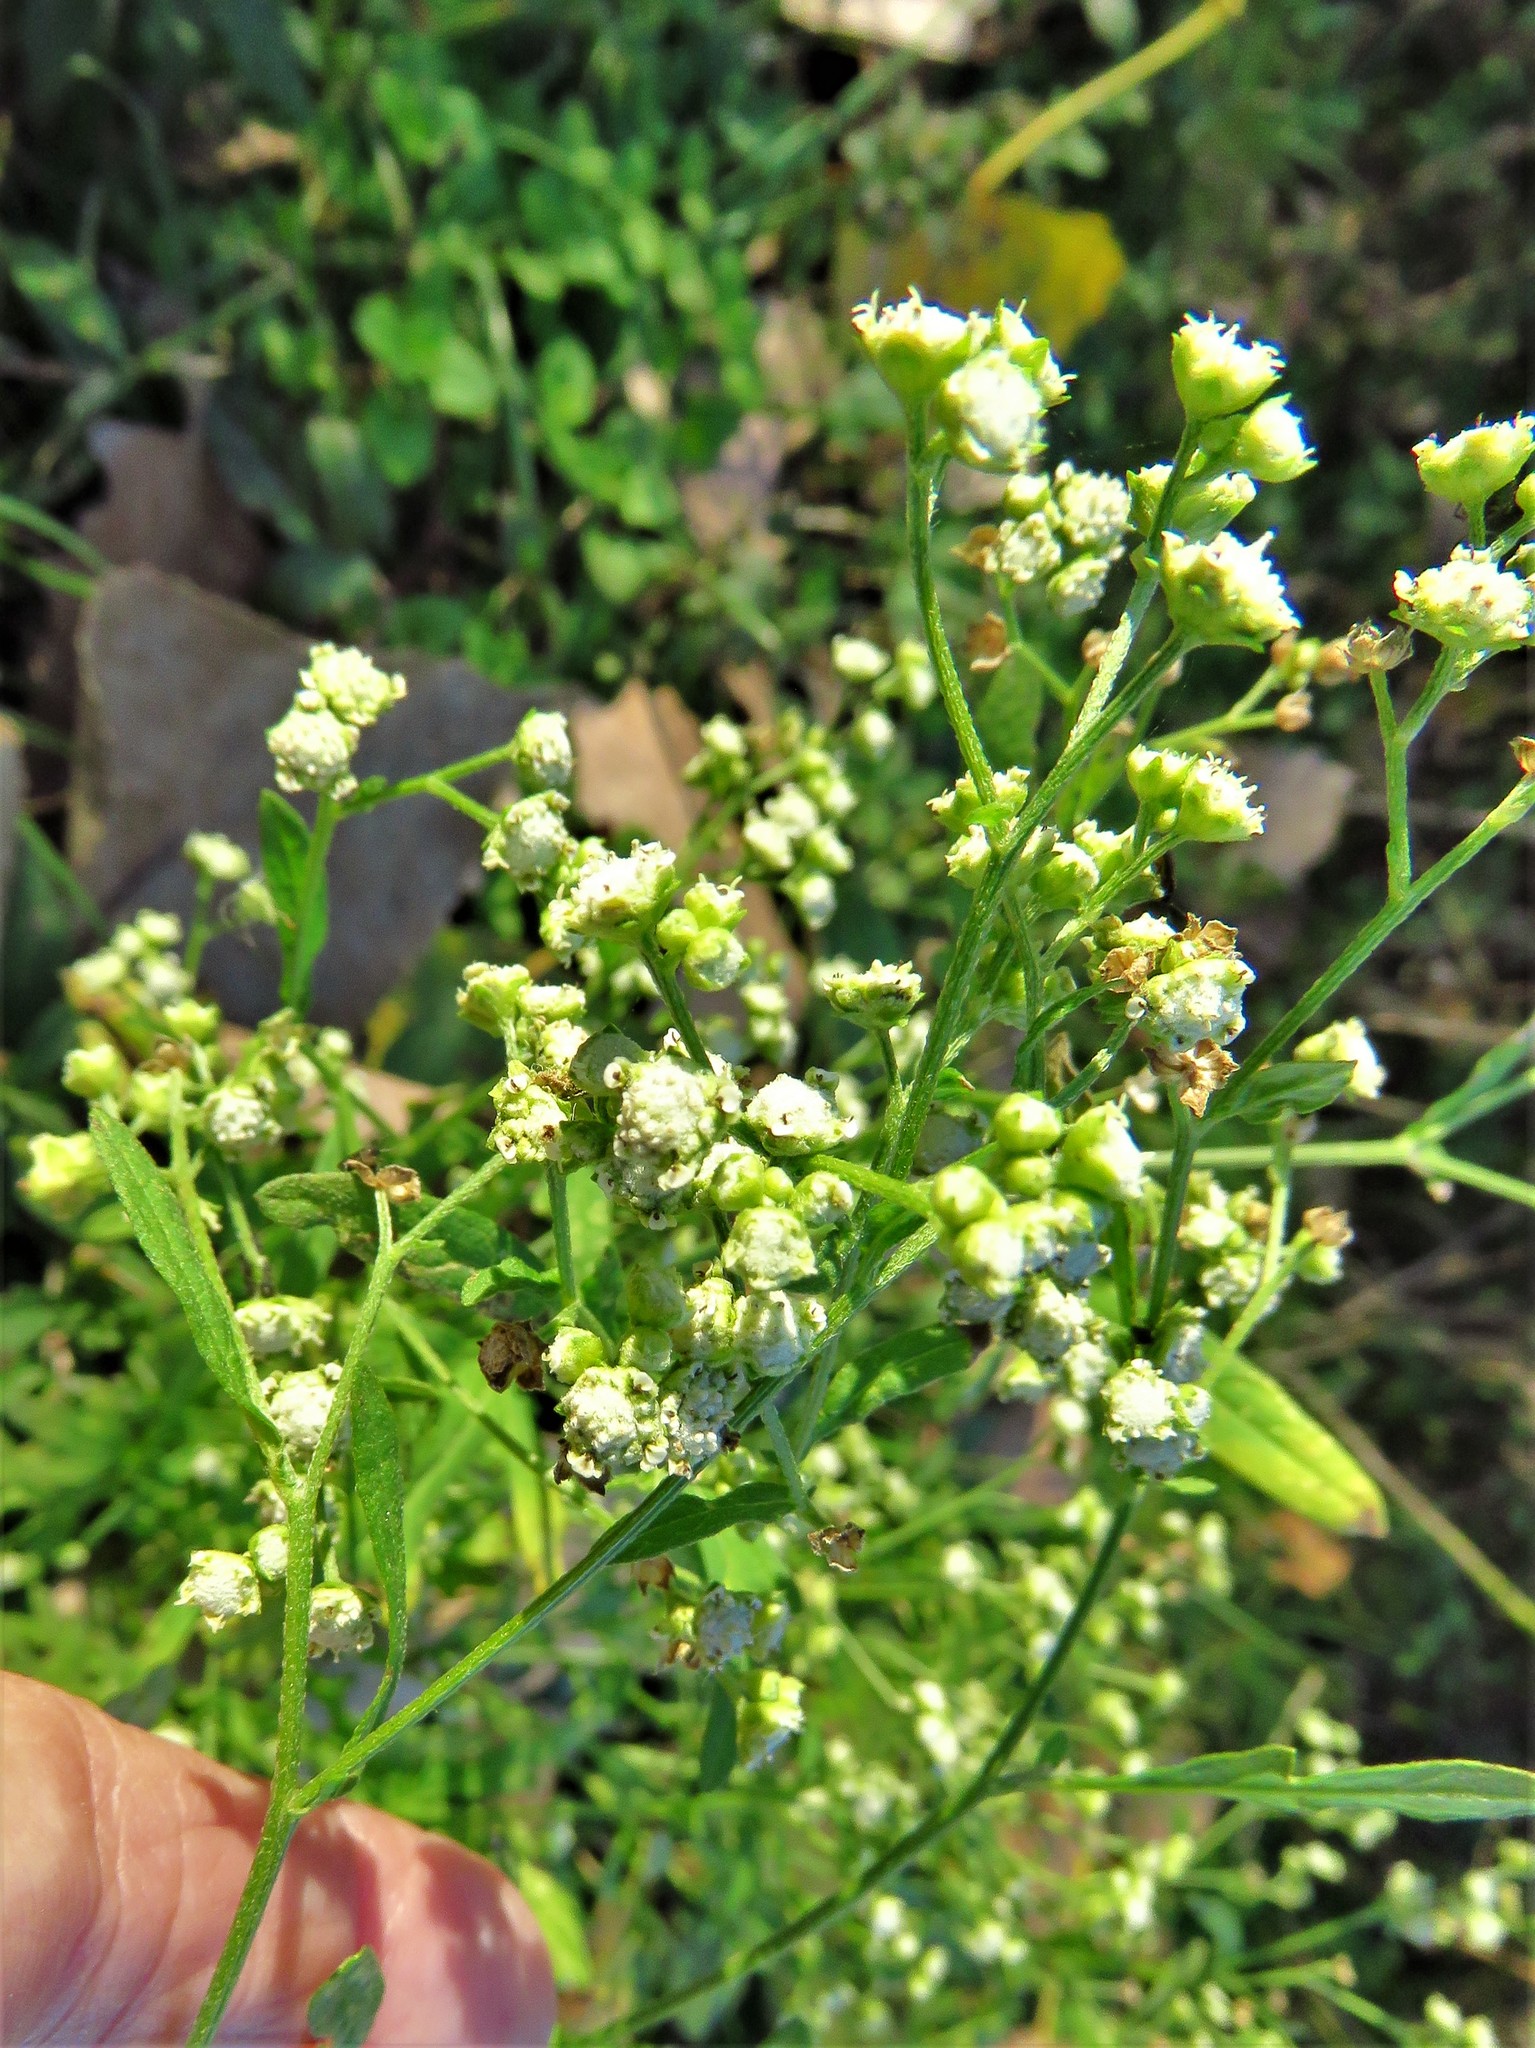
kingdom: Plantae
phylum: Tracheophyta
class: Magnoliopsida
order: Asterales
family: Asteraceae
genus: Parthenium
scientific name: Parthenium hysterophorus
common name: Santa maria feverfew
